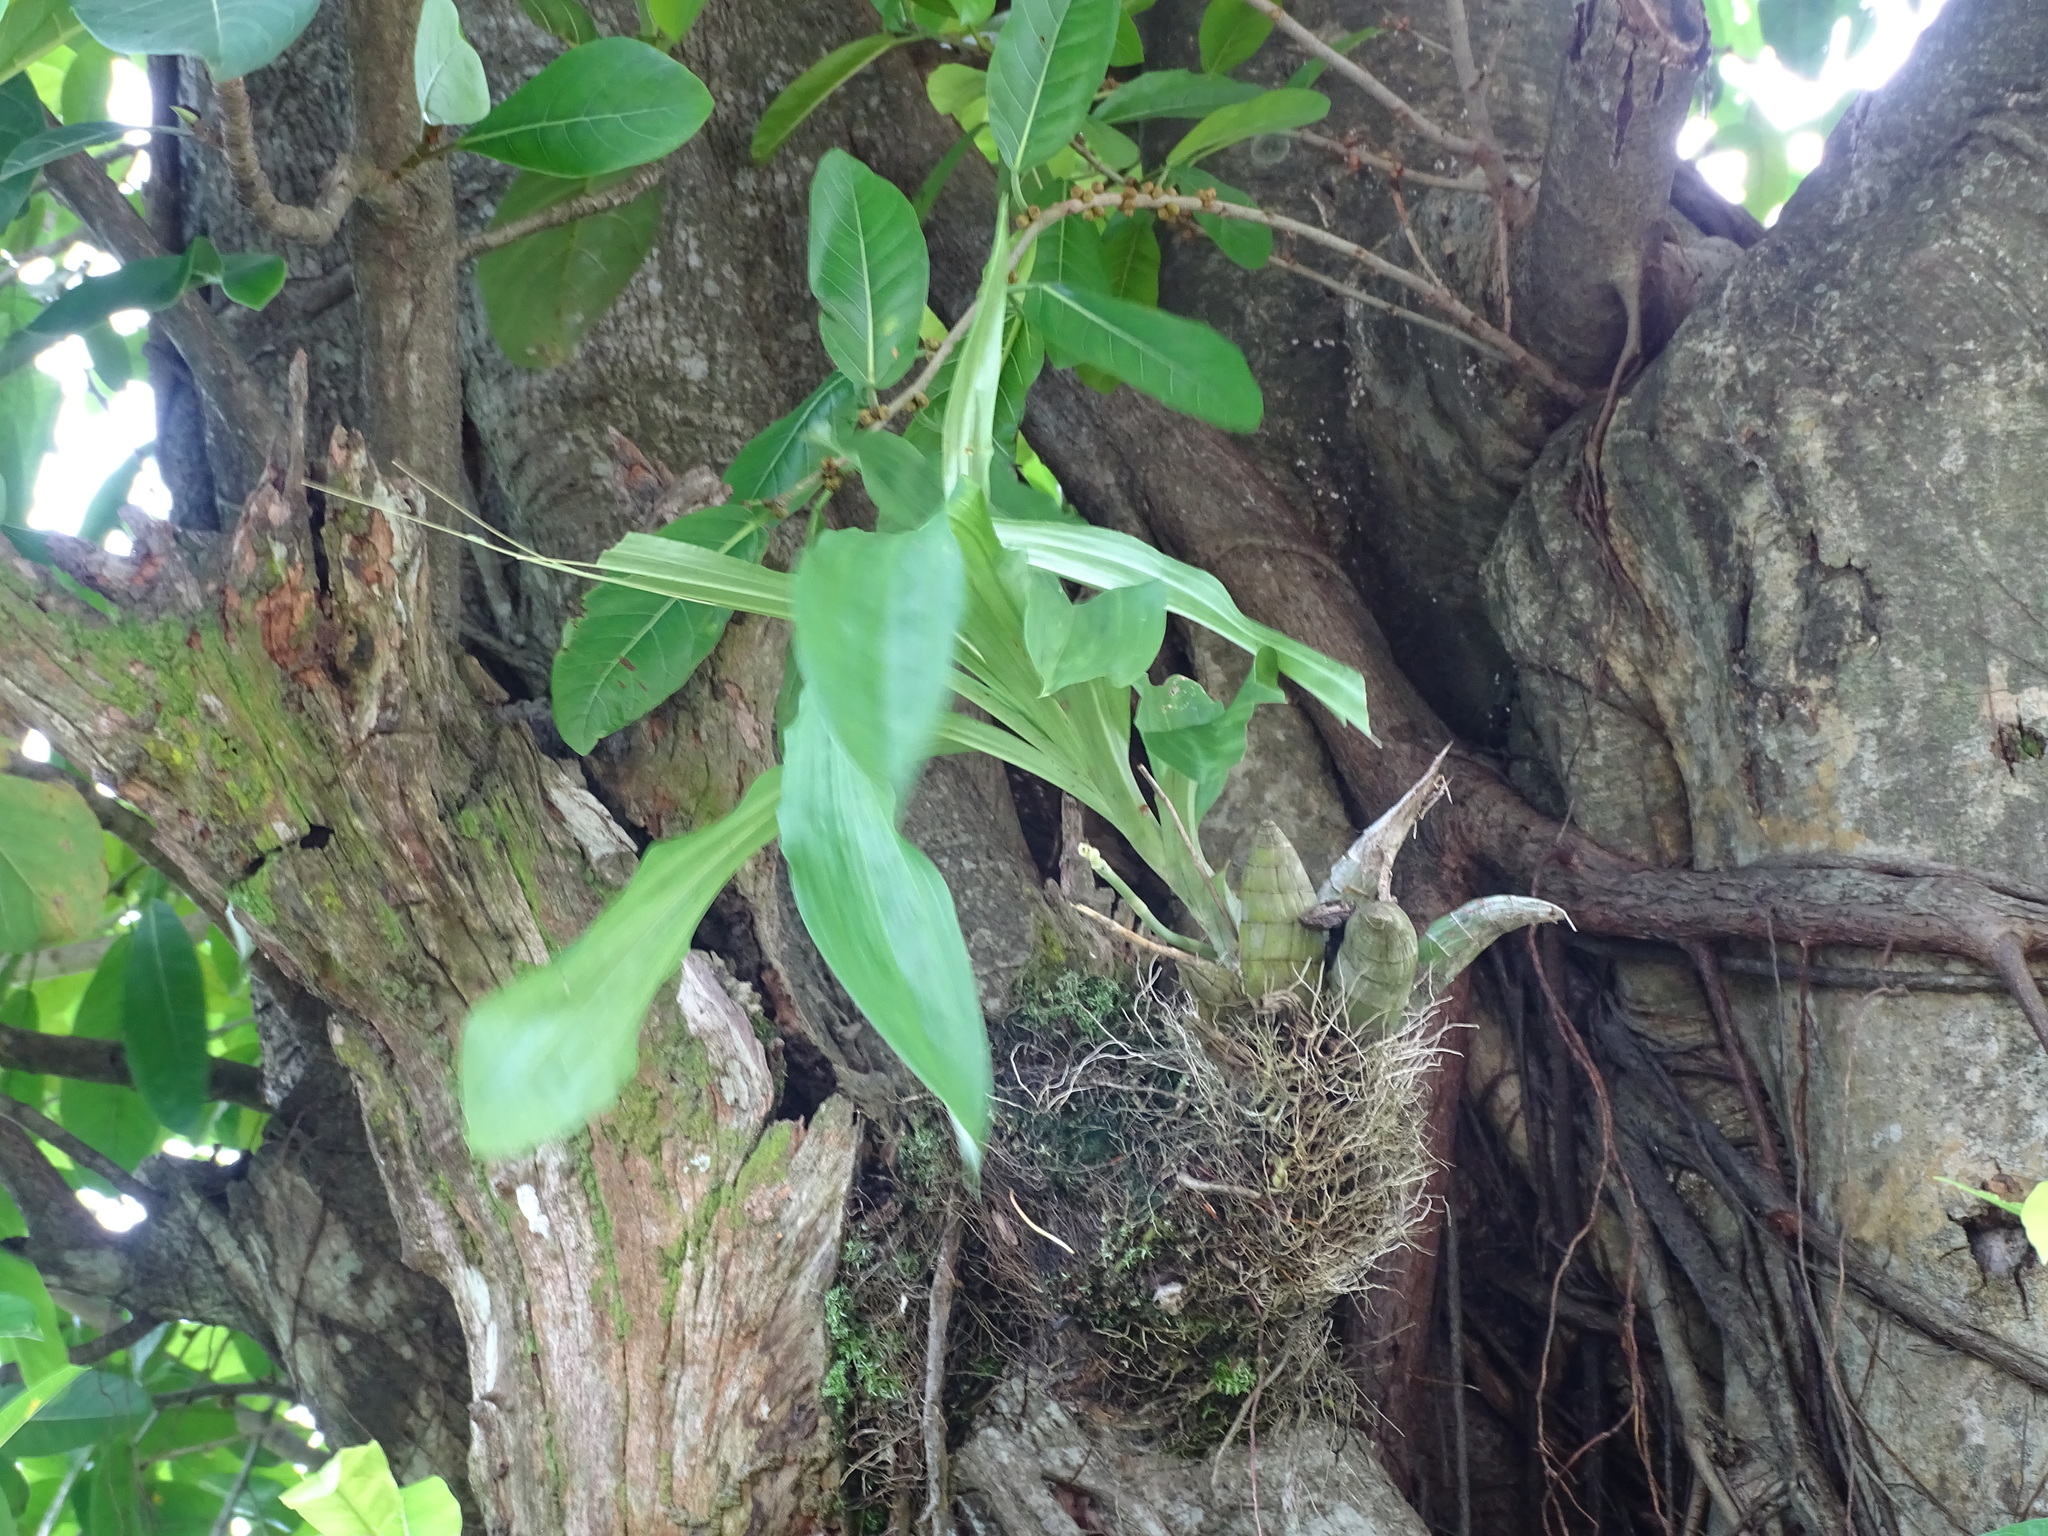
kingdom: Plantae
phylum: Tracheophyta
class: Liliopsida
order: Asparagales
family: Orchidaceae
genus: Catasetum
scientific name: Catasetum integerrimum
